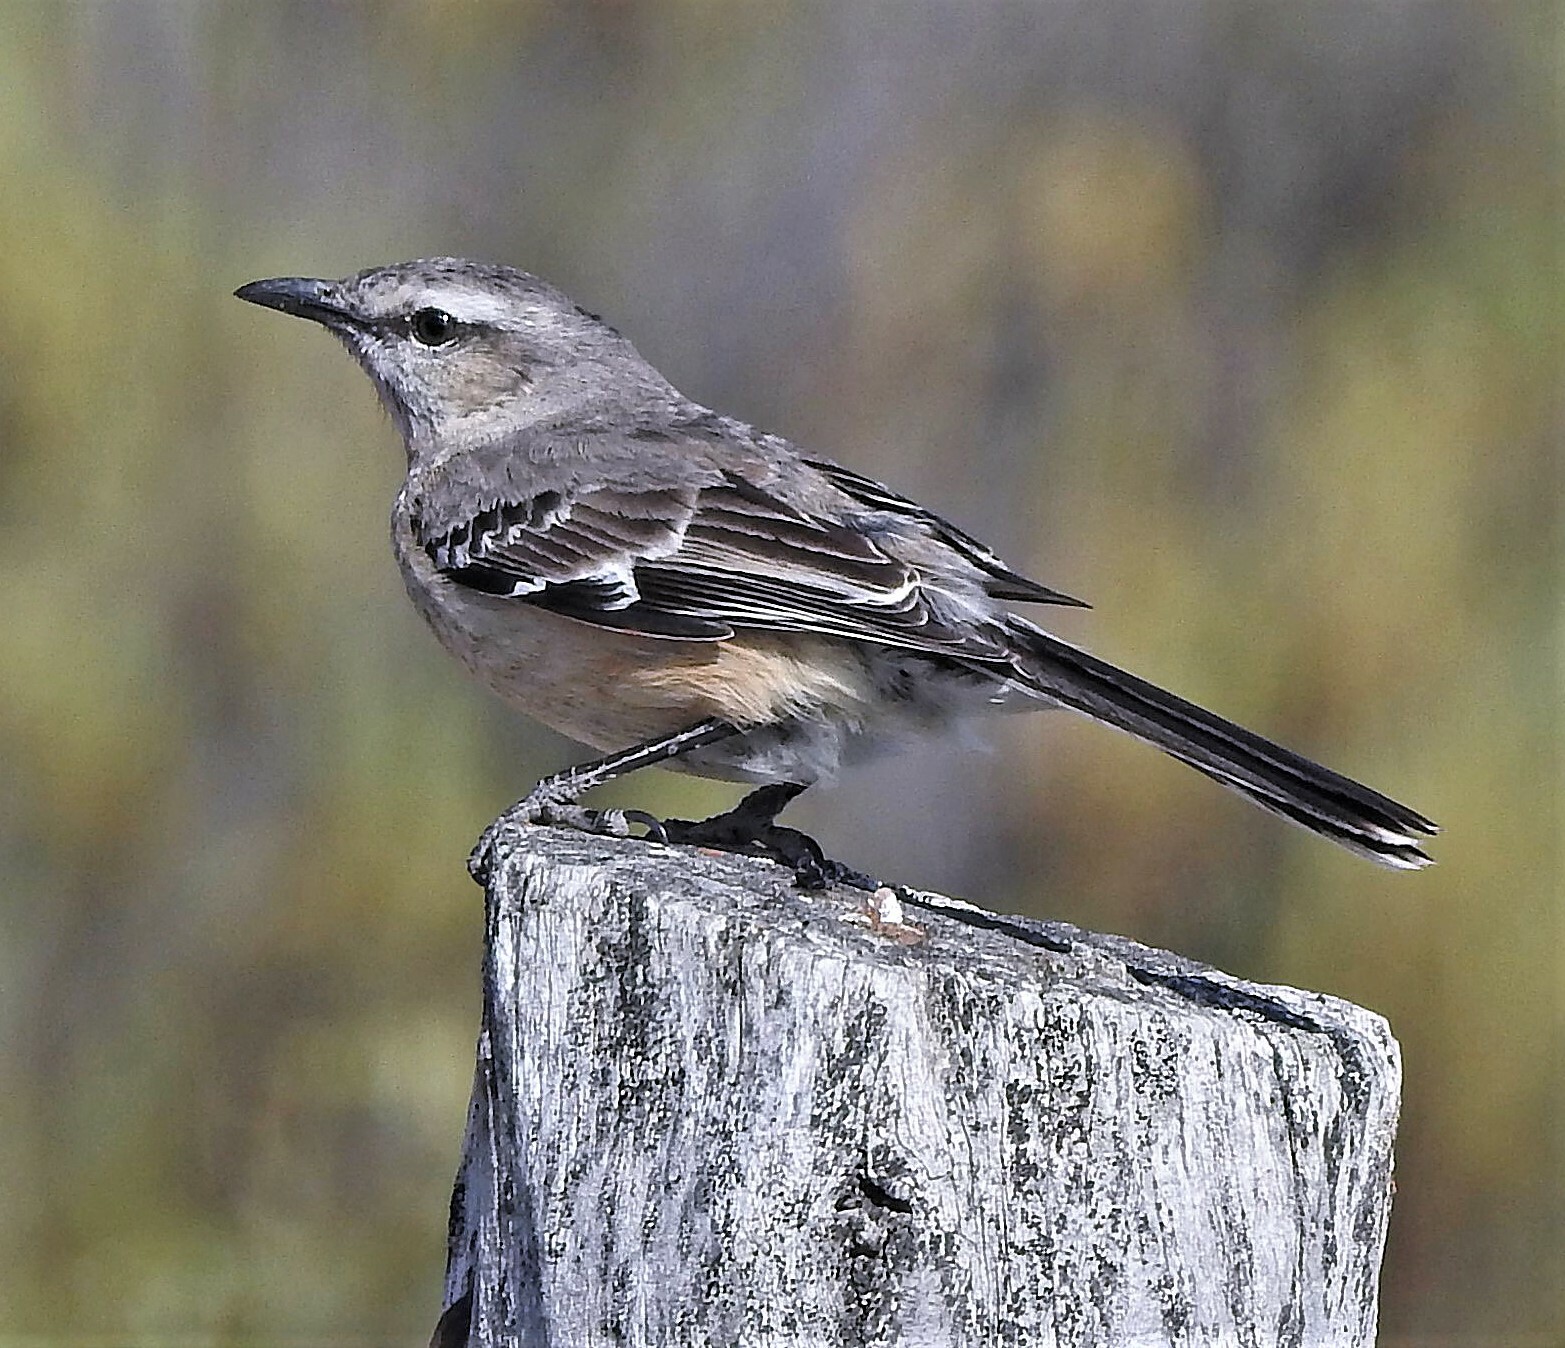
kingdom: Animalia
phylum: Chordata
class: Aves
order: Passeriformes
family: Mimidae
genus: Mimus
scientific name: Mimus patagonicus
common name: Patagonian mockingbird
